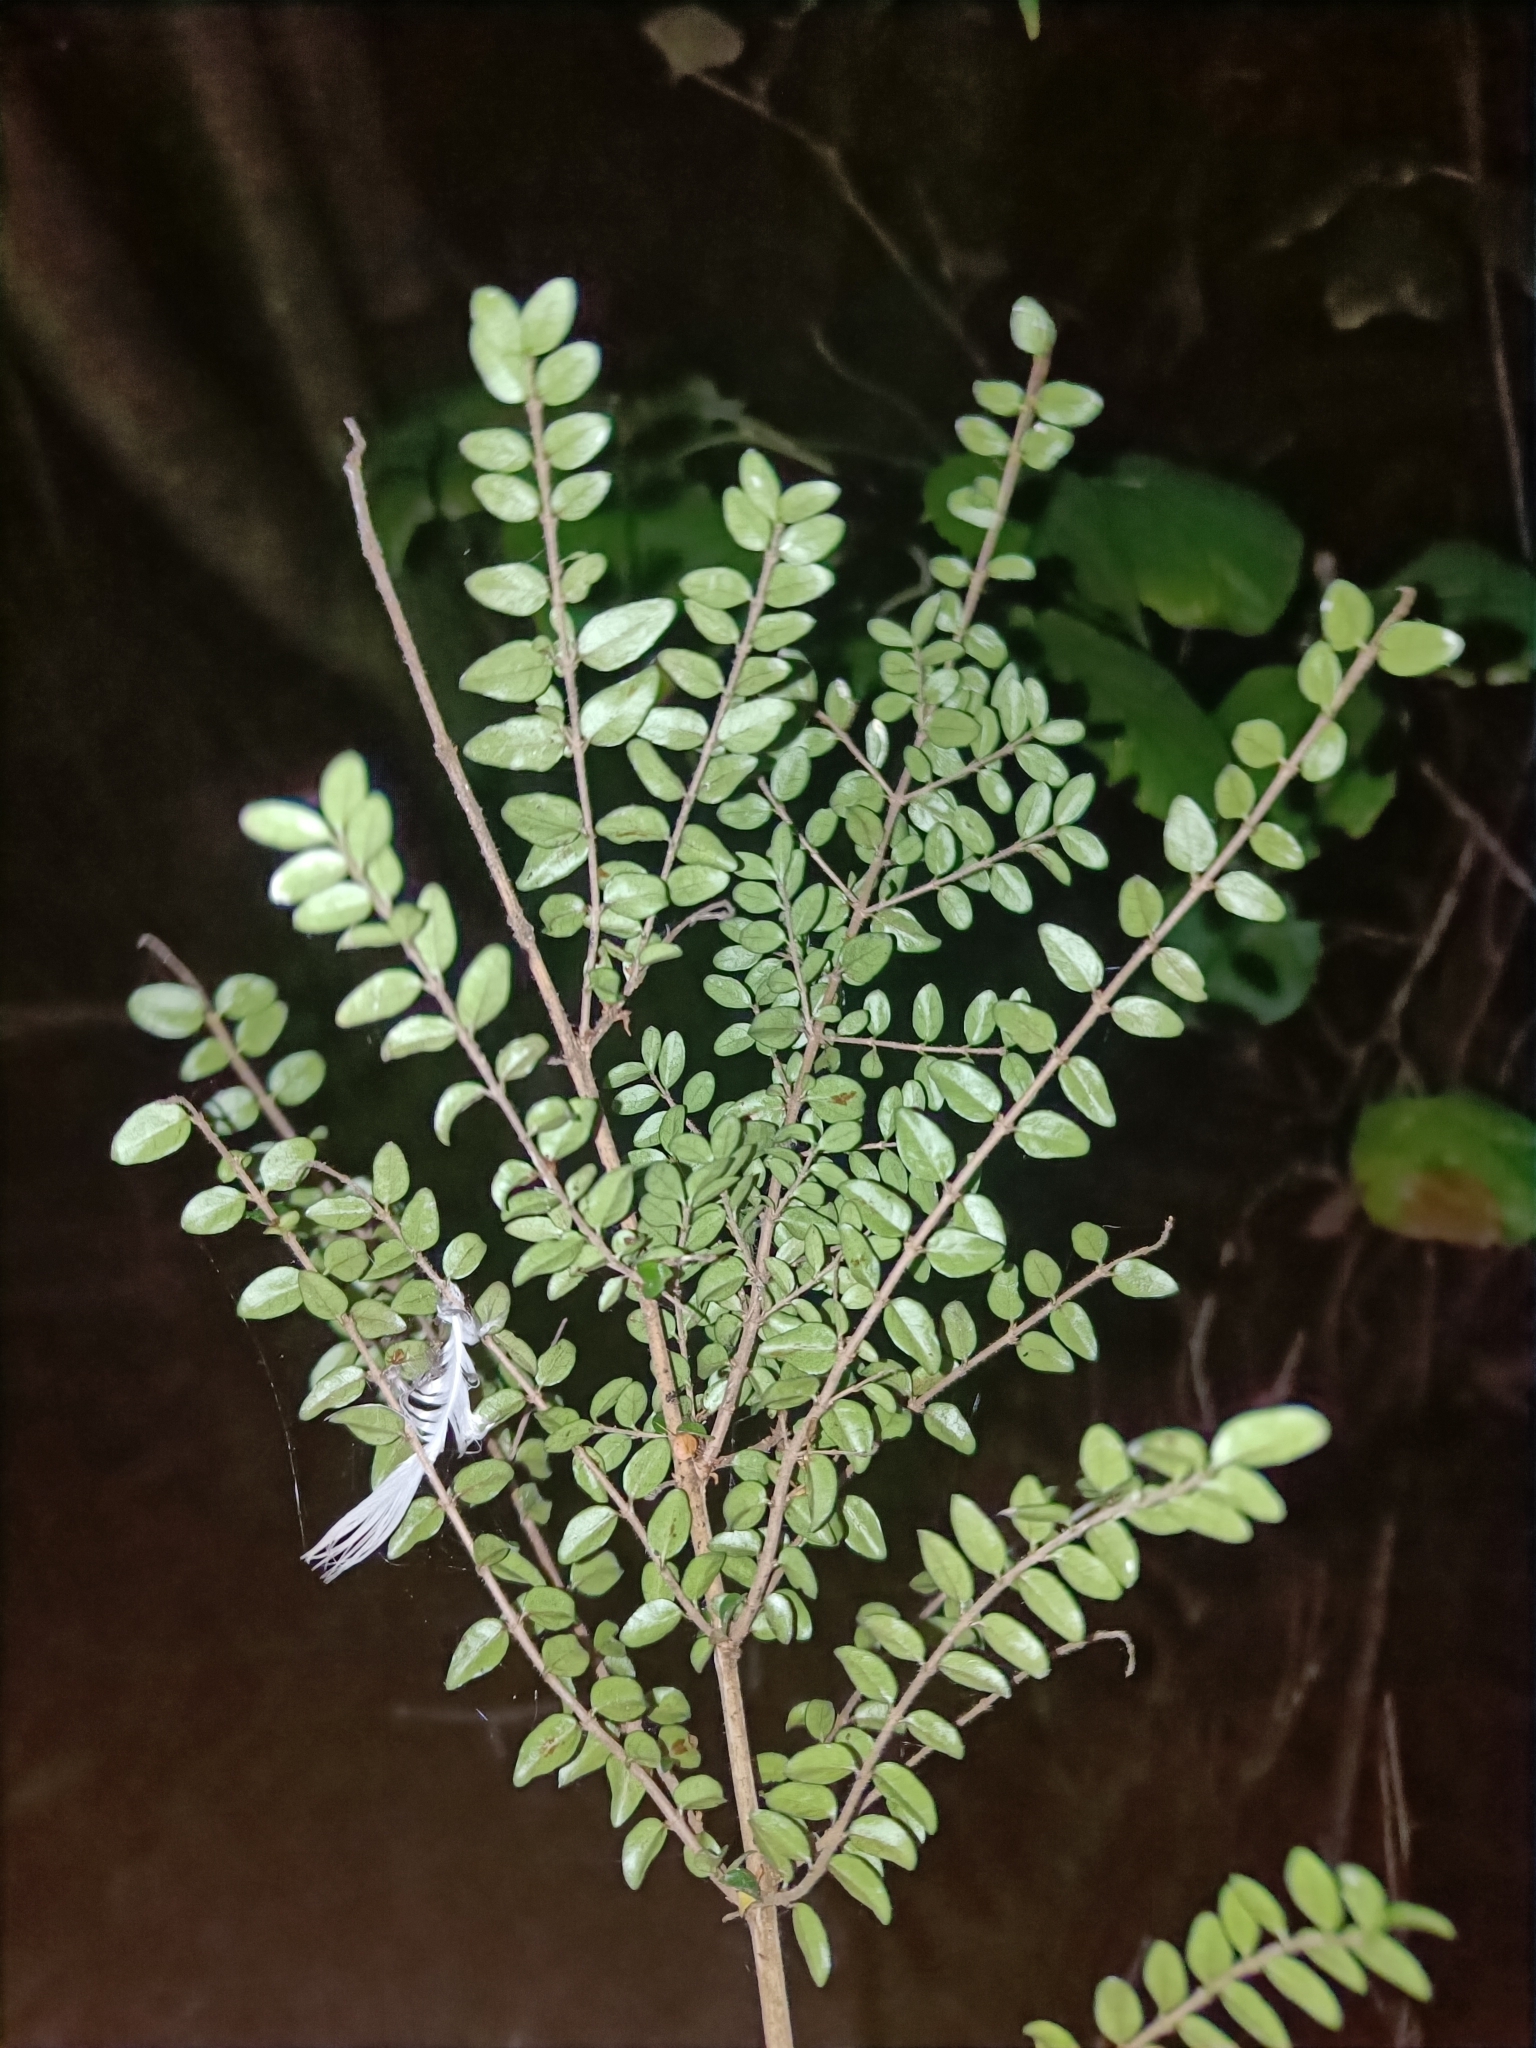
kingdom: Plantae
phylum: Tracheophyta
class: Magnoliopsida
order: Dipsacales
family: Caprifoliaceae
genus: Lonicera
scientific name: Lonicera ligustrina
